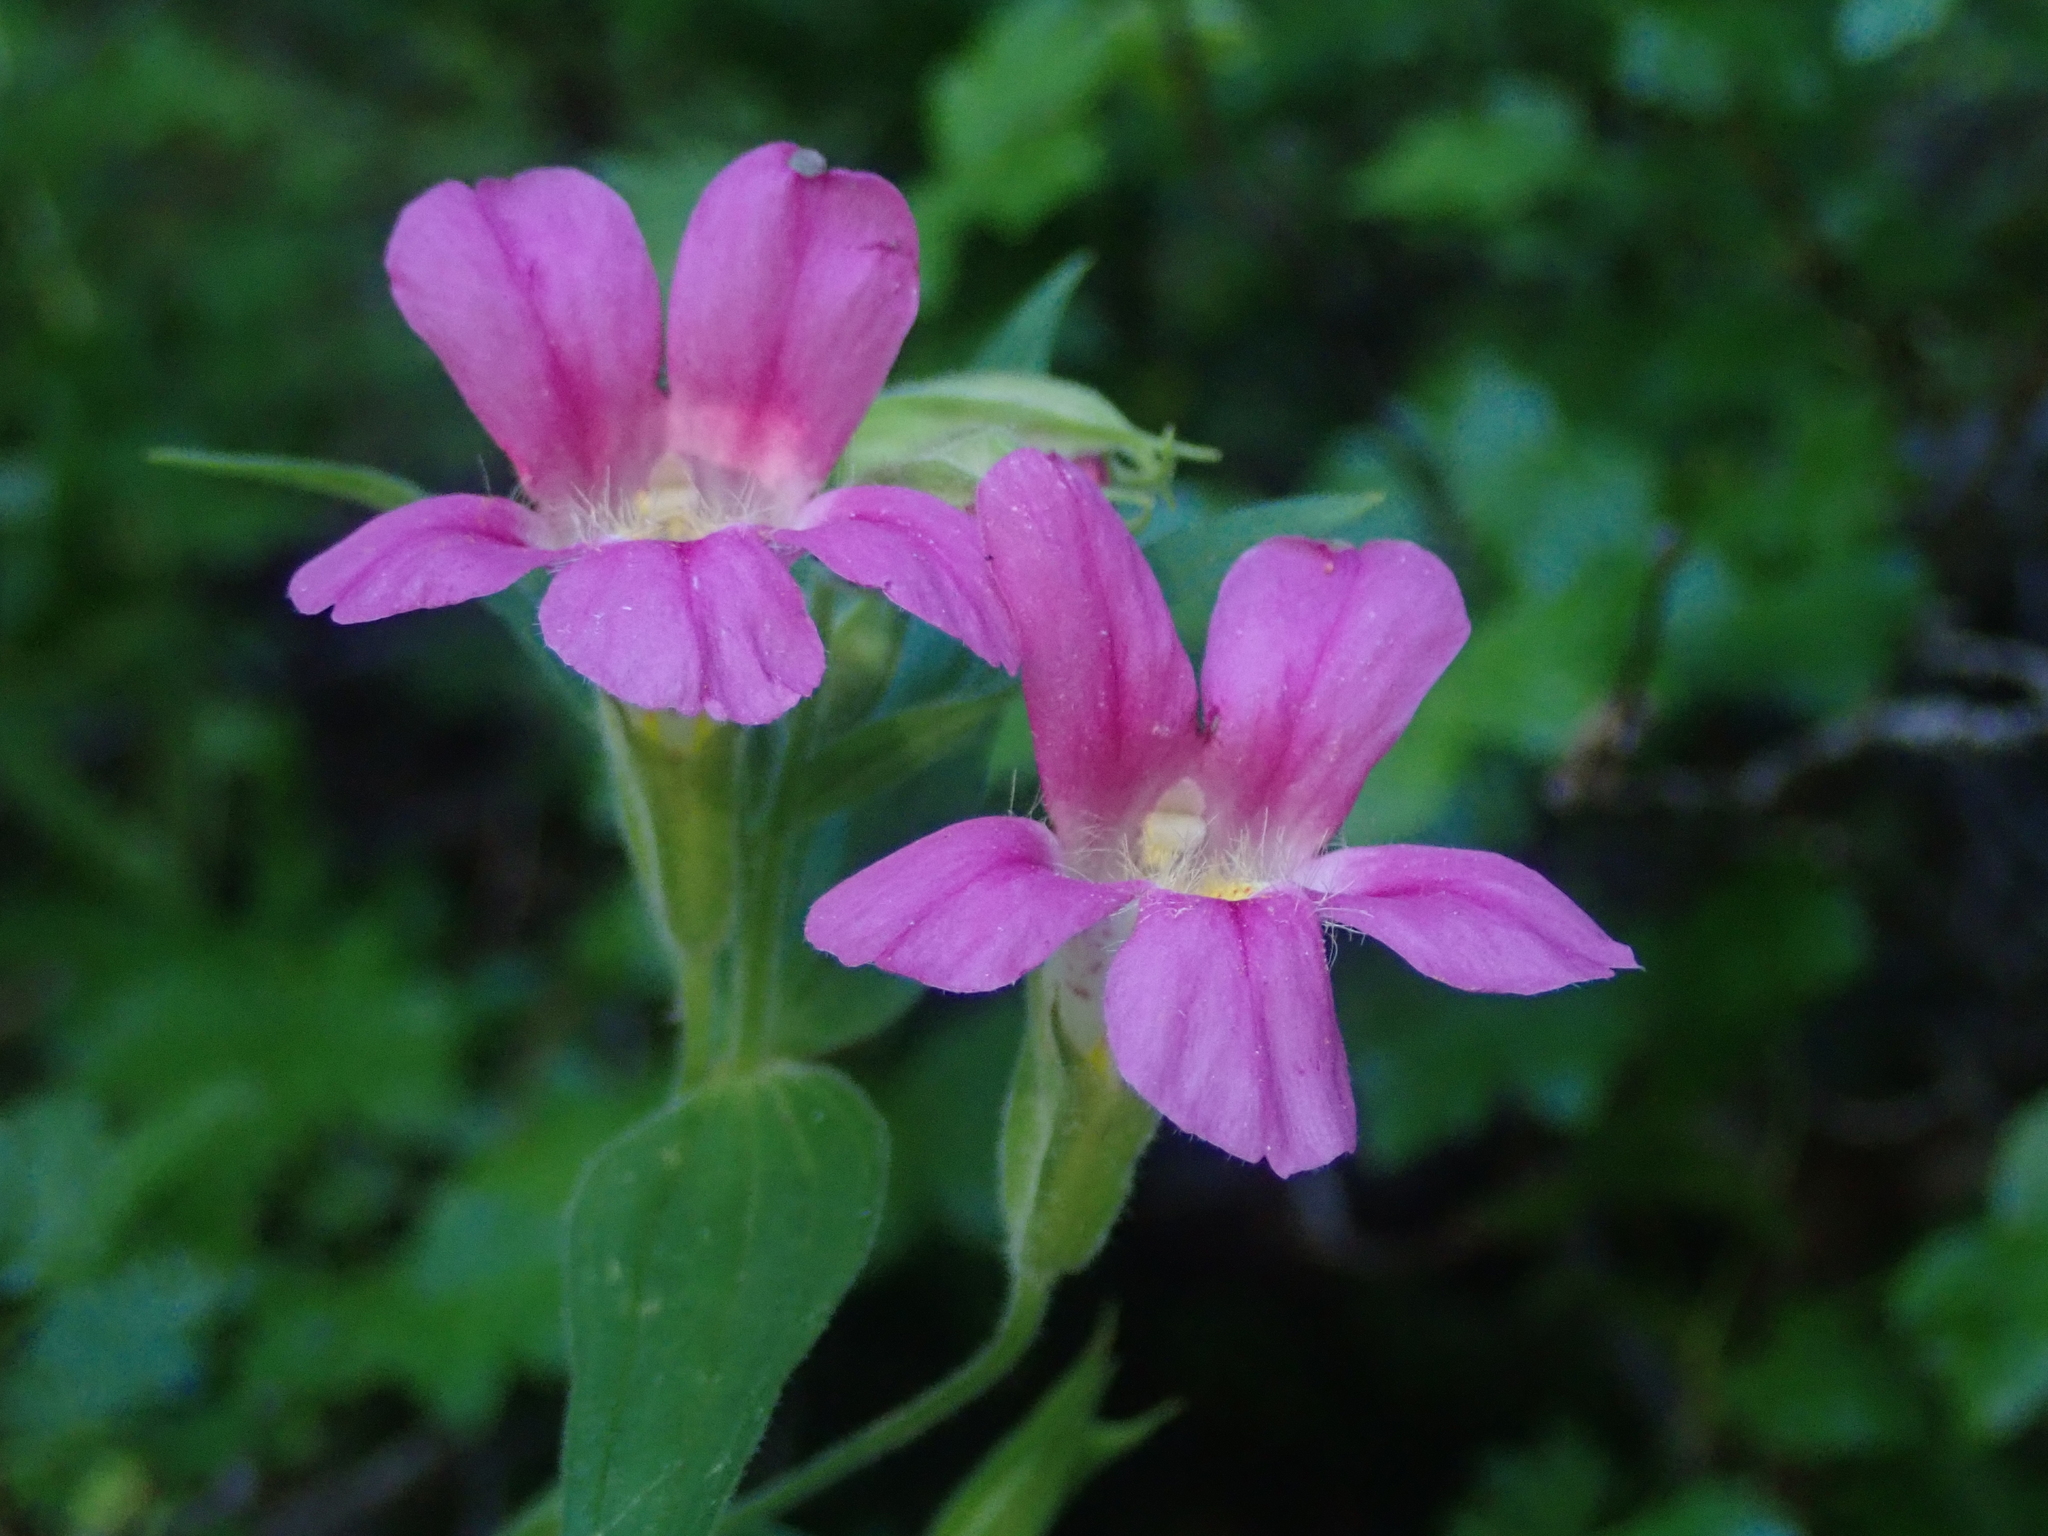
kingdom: Plantae
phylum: Tracheophyta
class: Magnoliopsida
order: Lamiales
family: Phrymaceae
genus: Erythranthe
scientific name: Erythranthe lewisii
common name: Lewis's monkey-flower
